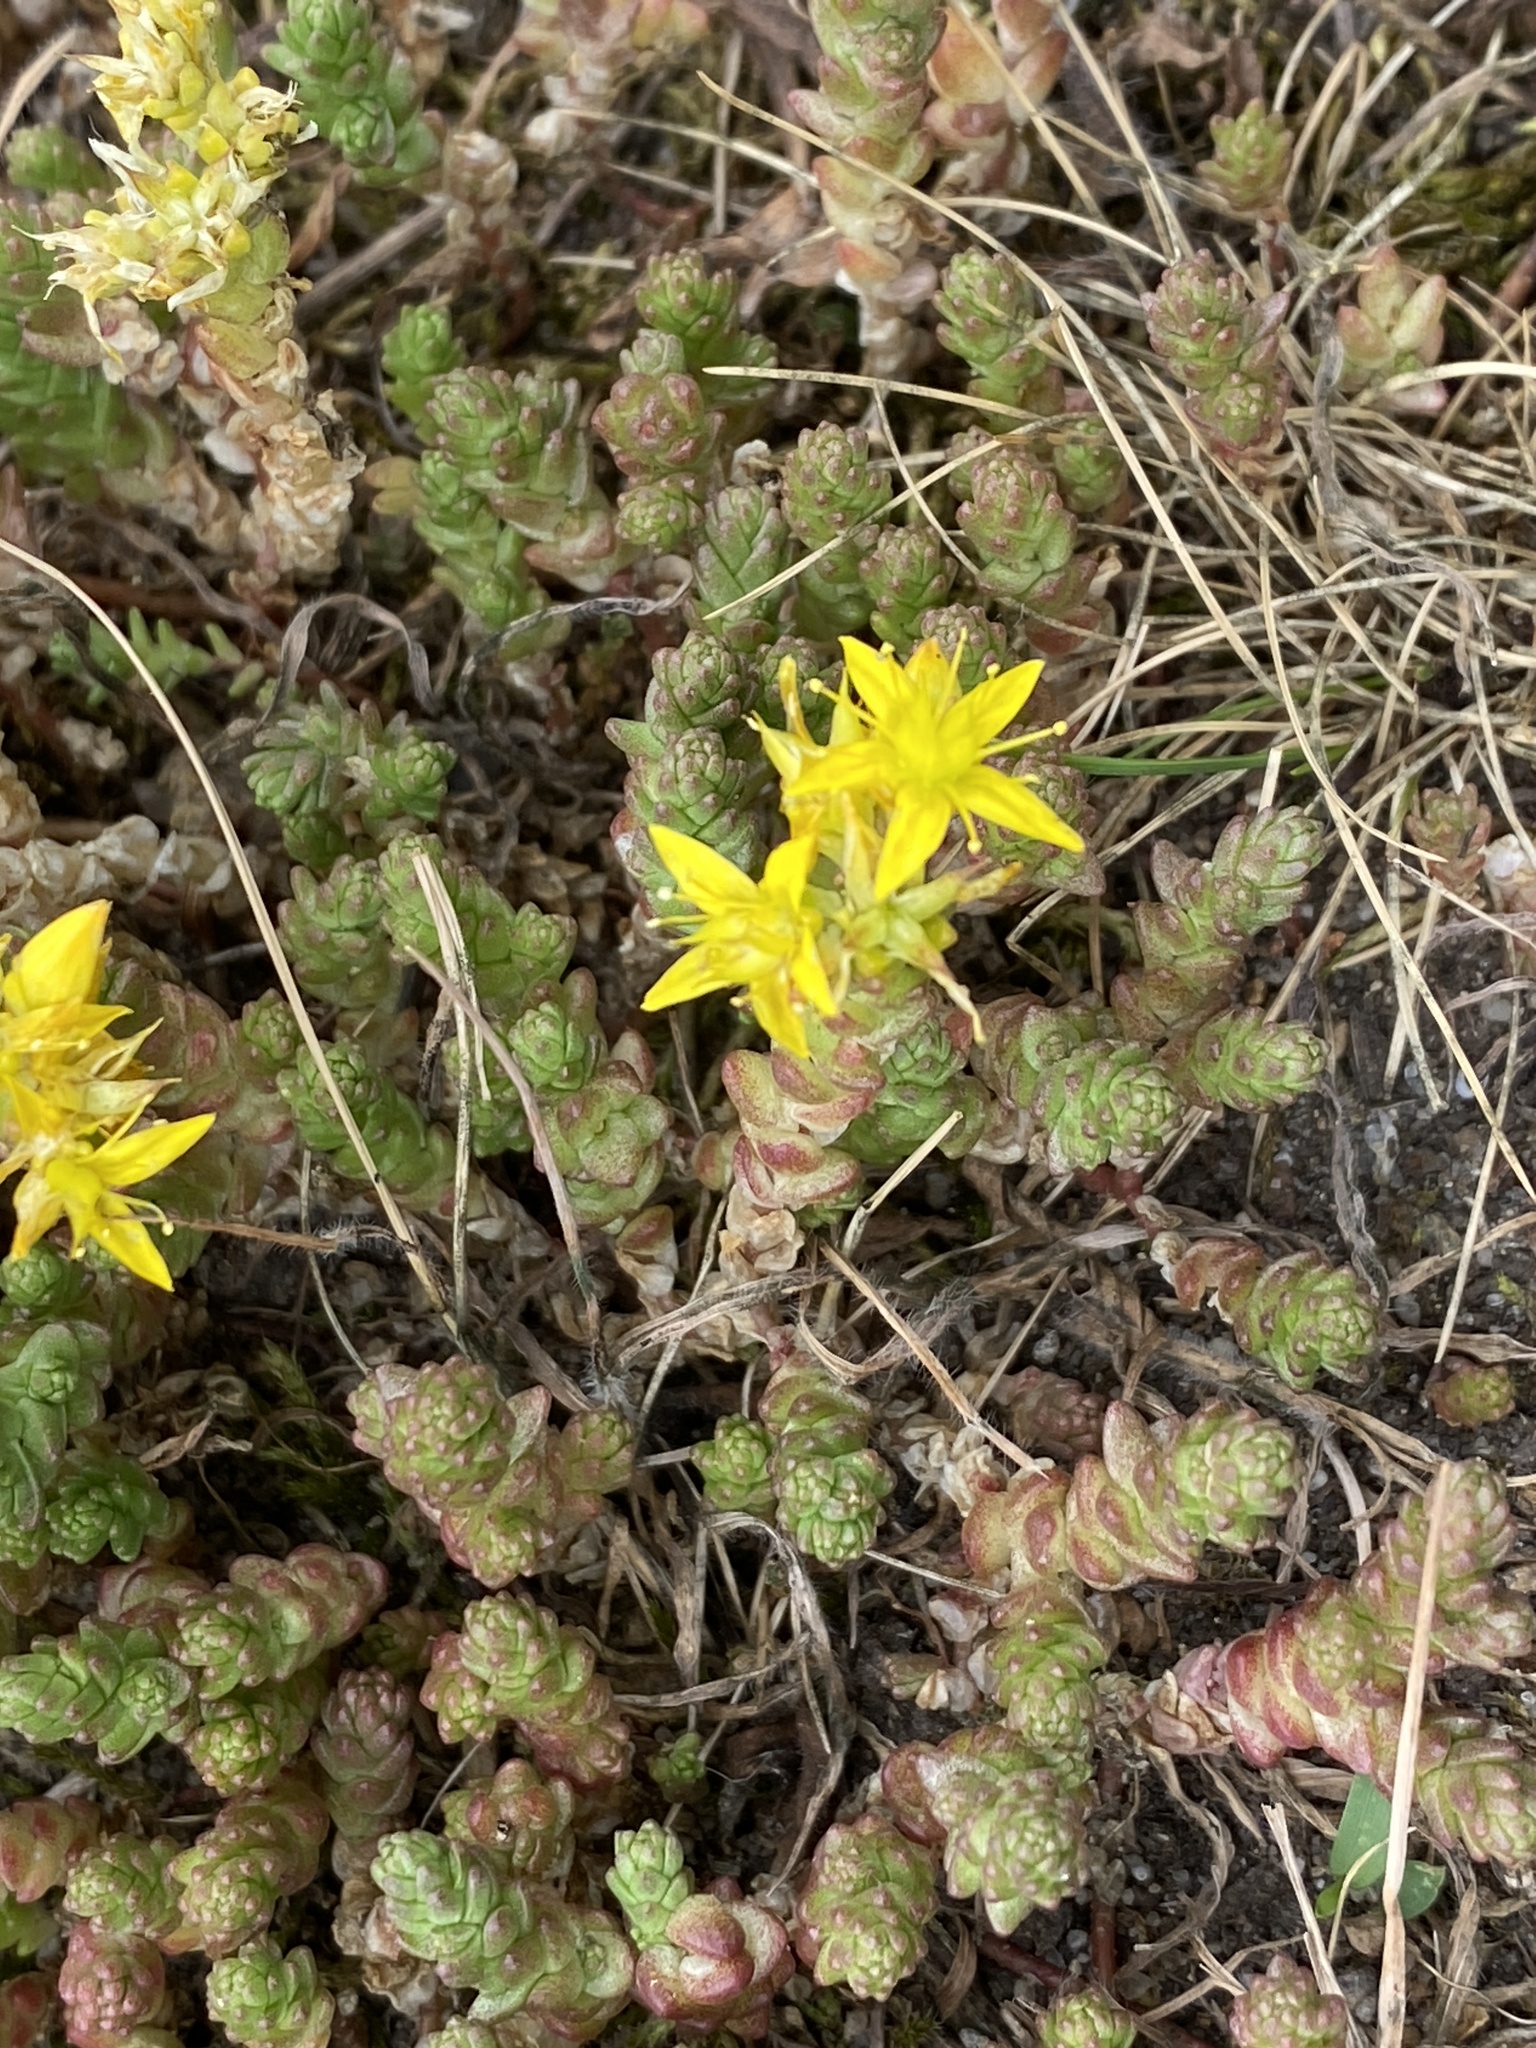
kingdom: Plantae
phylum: Tracheophyta
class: Magnoliopsida
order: Saxifragales
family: Crassulaceae
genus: Sedum
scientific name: Sedum acre
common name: Biting stonecrop
